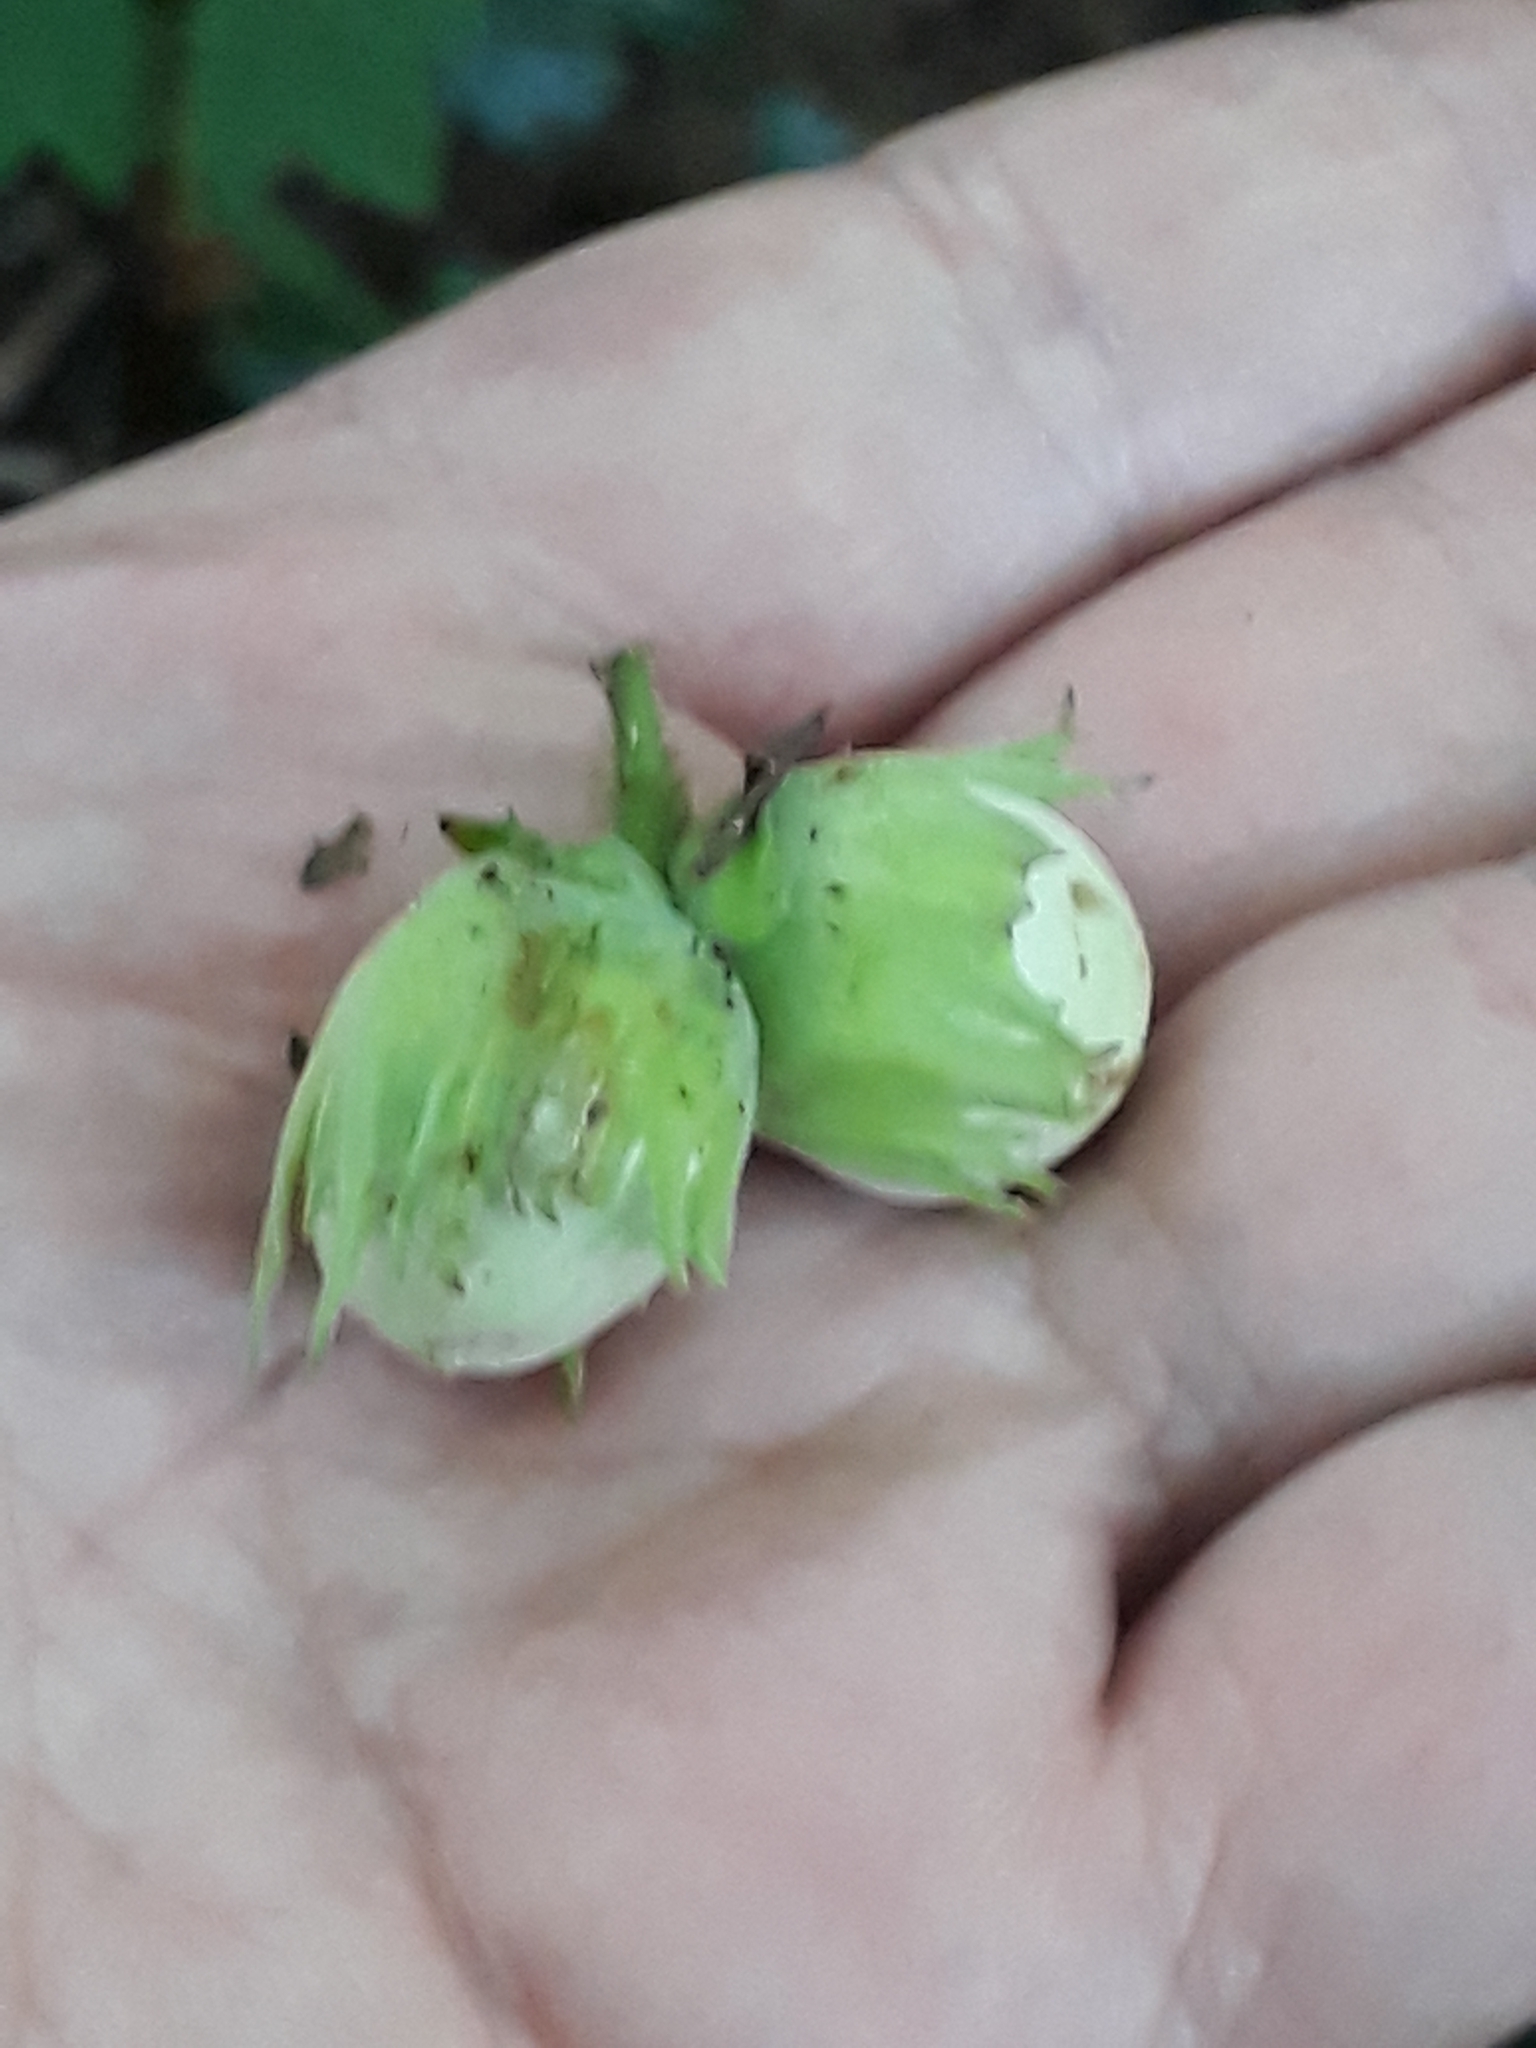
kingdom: Plantae
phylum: Tracheophyta
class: Magnoliopsida
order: Fagales
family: Betulaceae
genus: Corylus
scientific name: Corylus avellana
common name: European hazel
